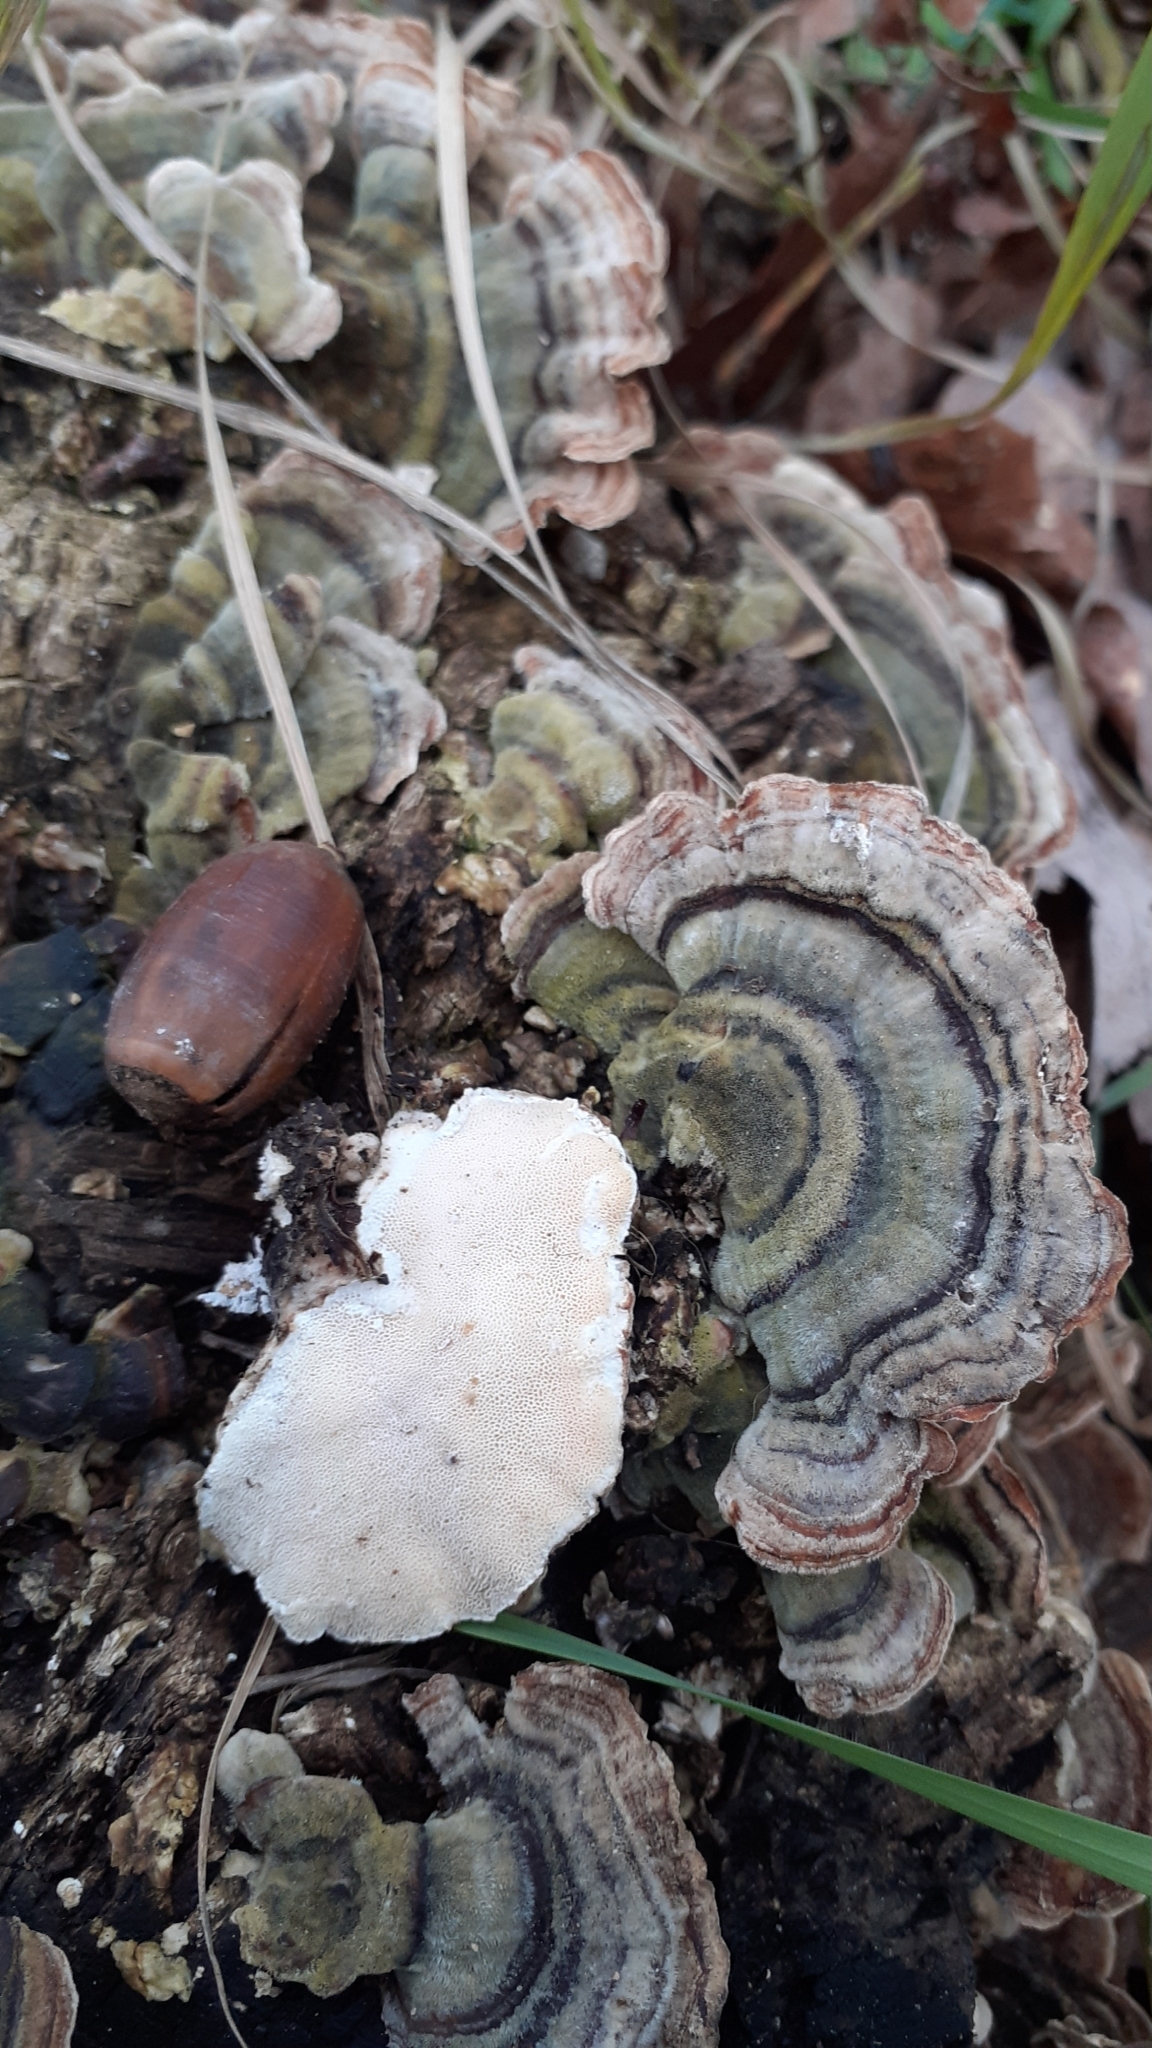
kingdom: Fungi
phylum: Basidiomycota
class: Agaricomycetes
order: Polyporales
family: Polyporaceae
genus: Trametes
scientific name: Trametes versicolor
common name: Turkeytail
